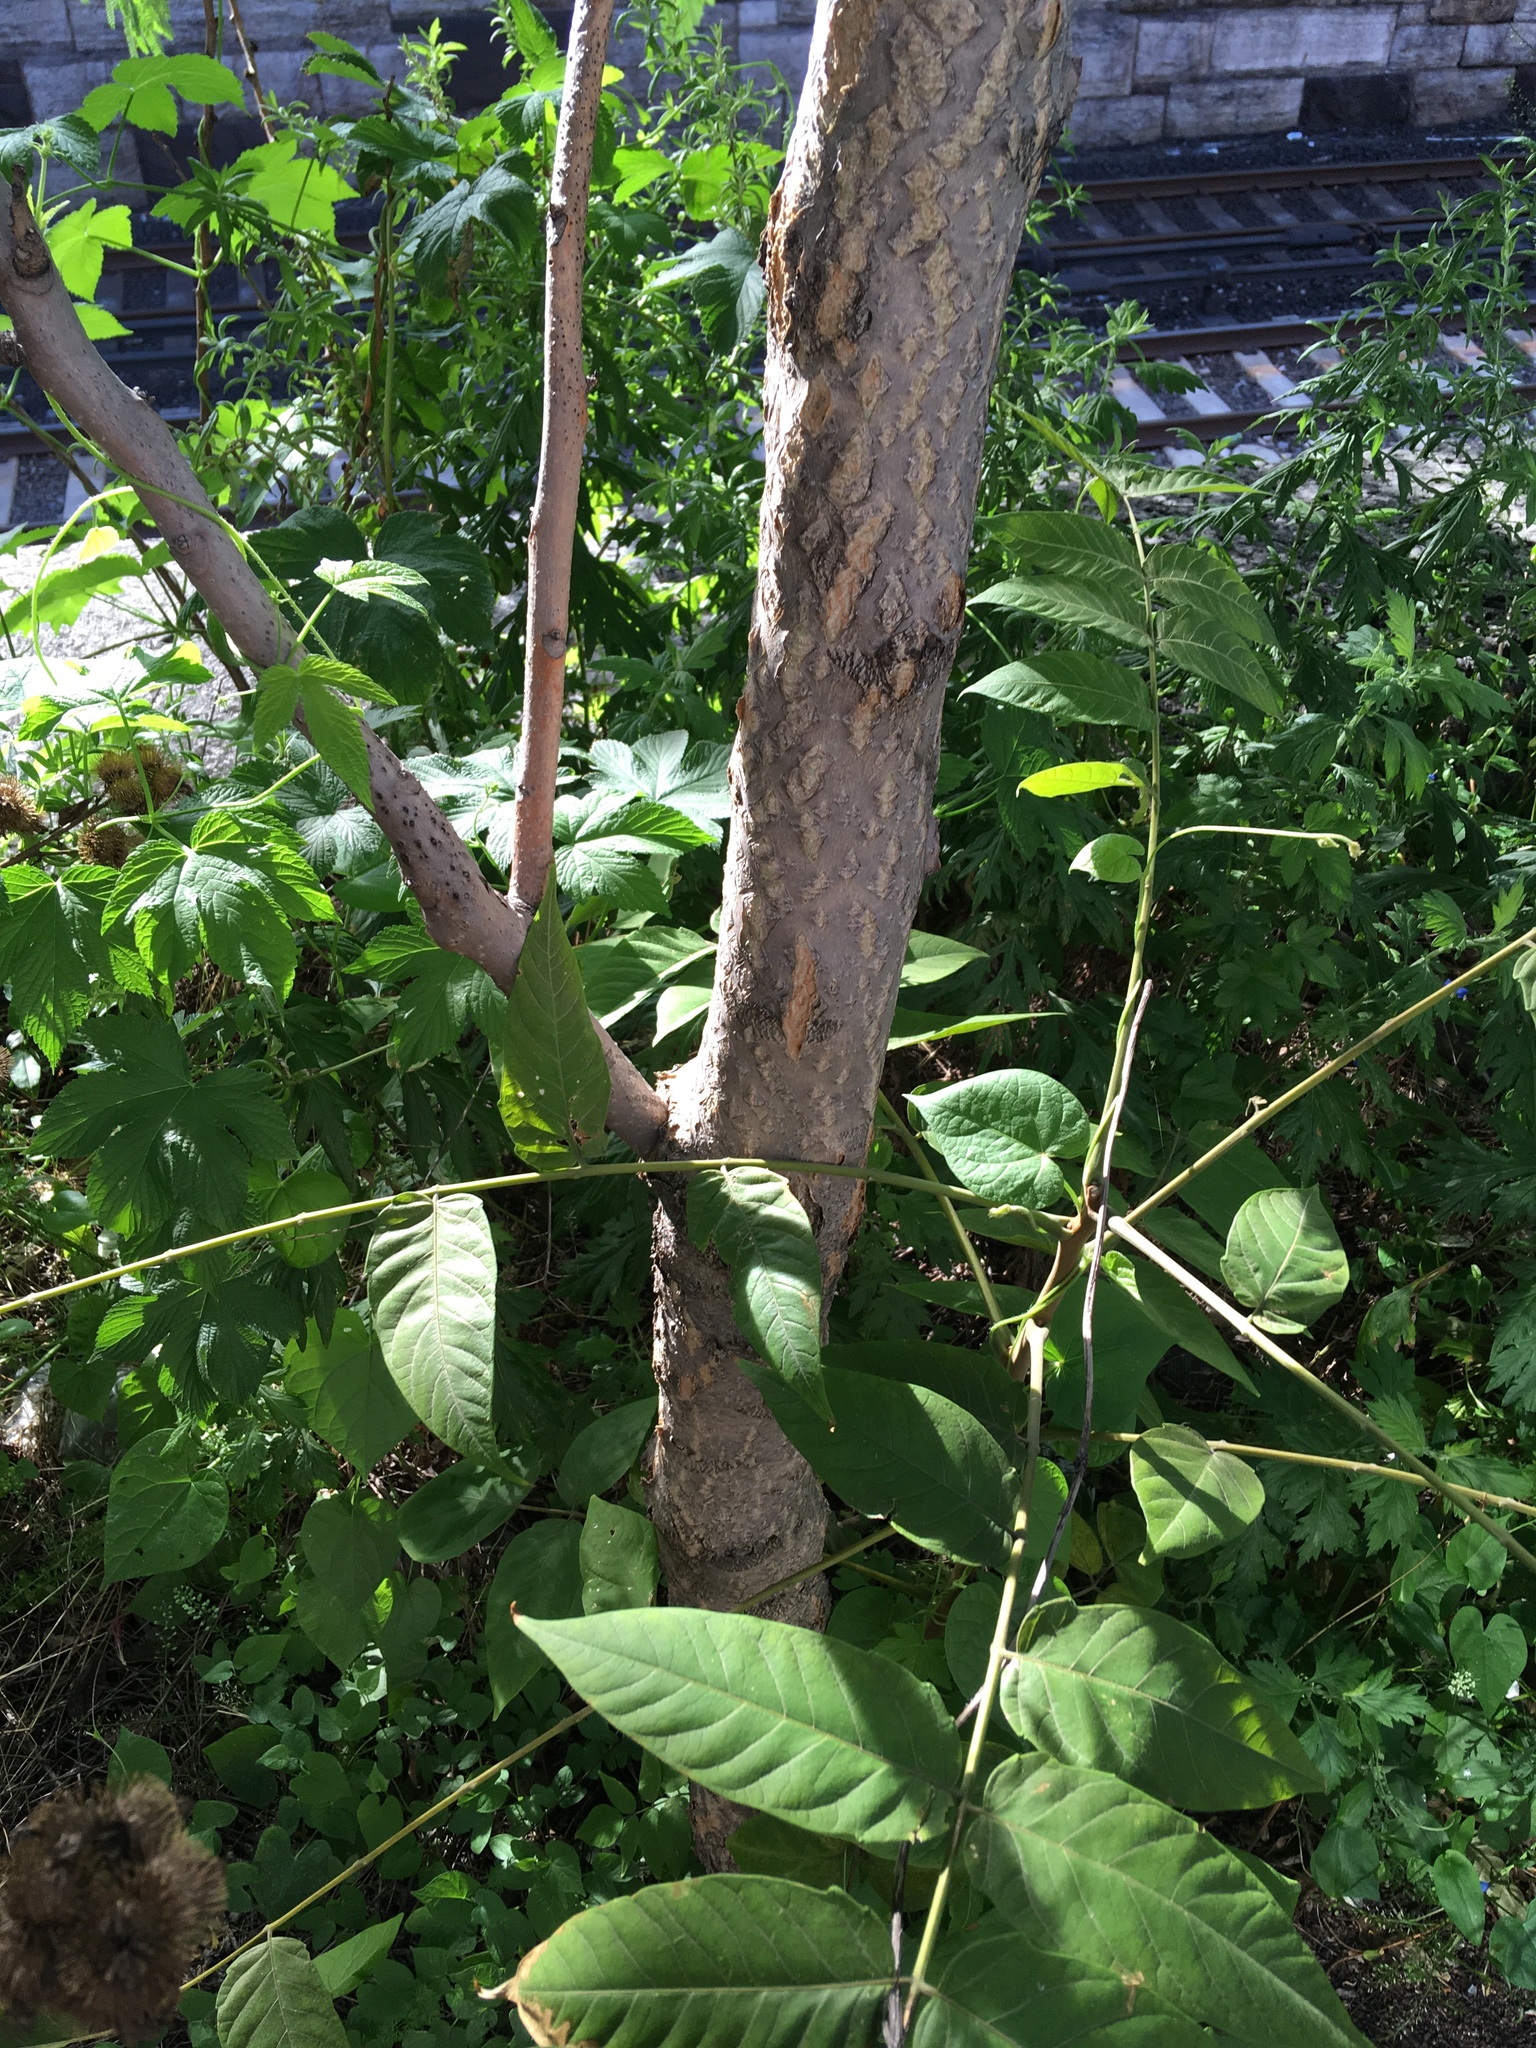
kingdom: Plantae
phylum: Tracheophyta
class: Magnoliopsida
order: Sapindales
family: Simaroubaceae
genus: Ailanthus
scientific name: Ailanthus altissima
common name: Tree-of-heaven
